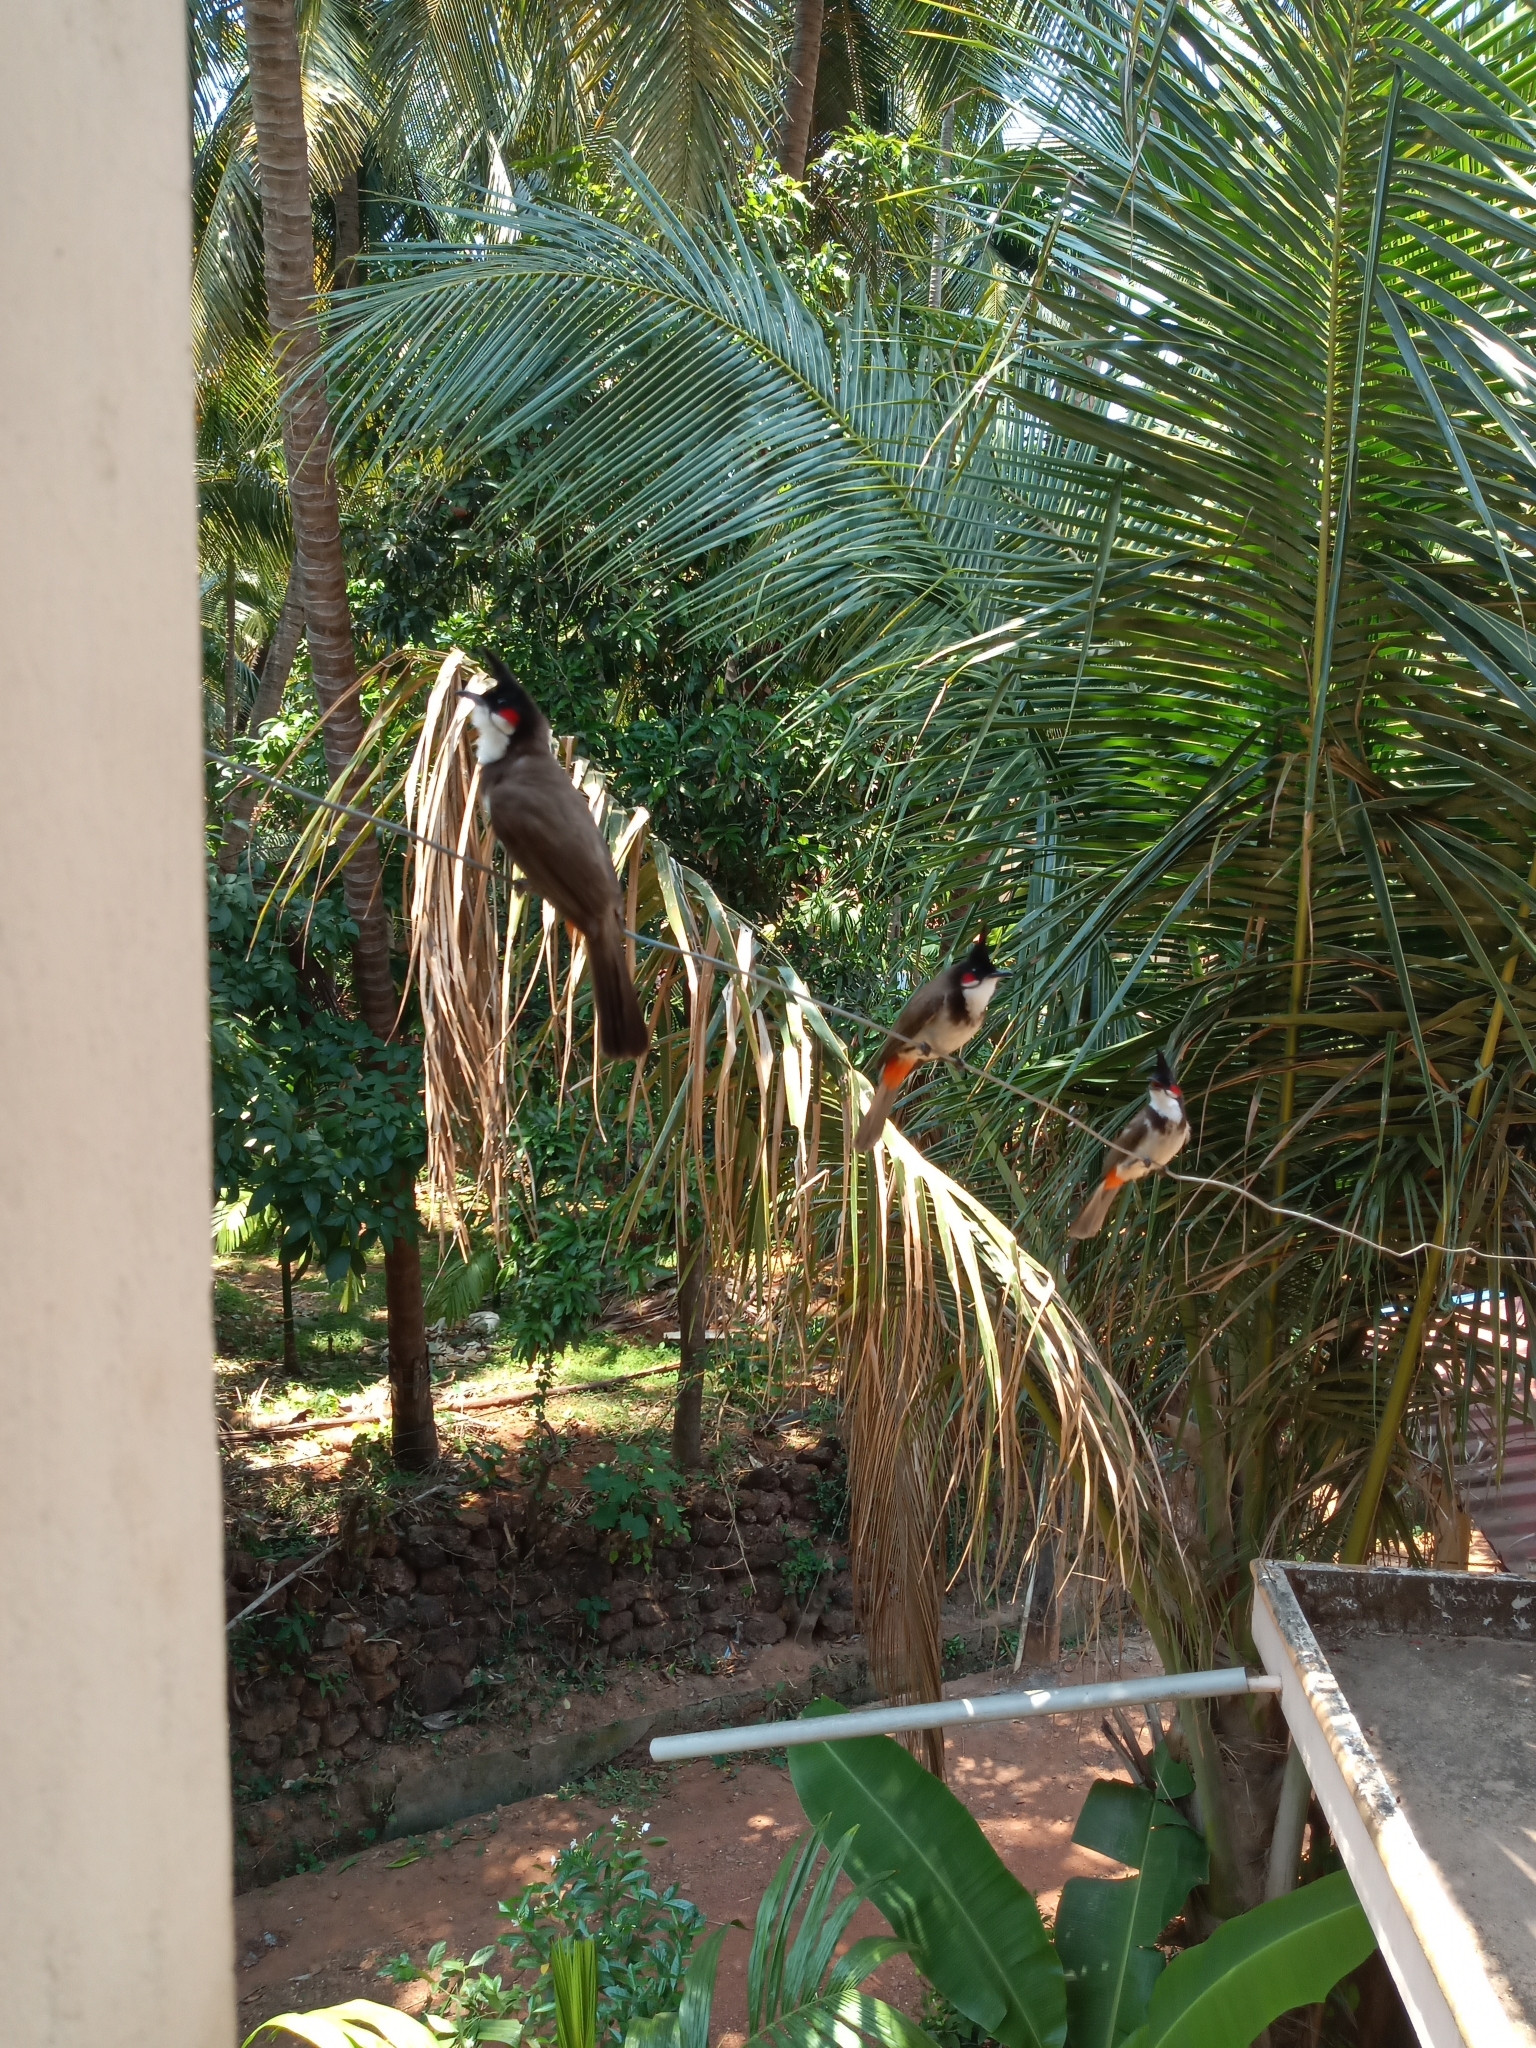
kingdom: Animalia
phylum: Chordata
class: Aves
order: Passeriformes
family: Pycnonotidae
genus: Pycnonotus
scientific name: Pycnonotus jocosus
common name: Red-whiskered bulbul
